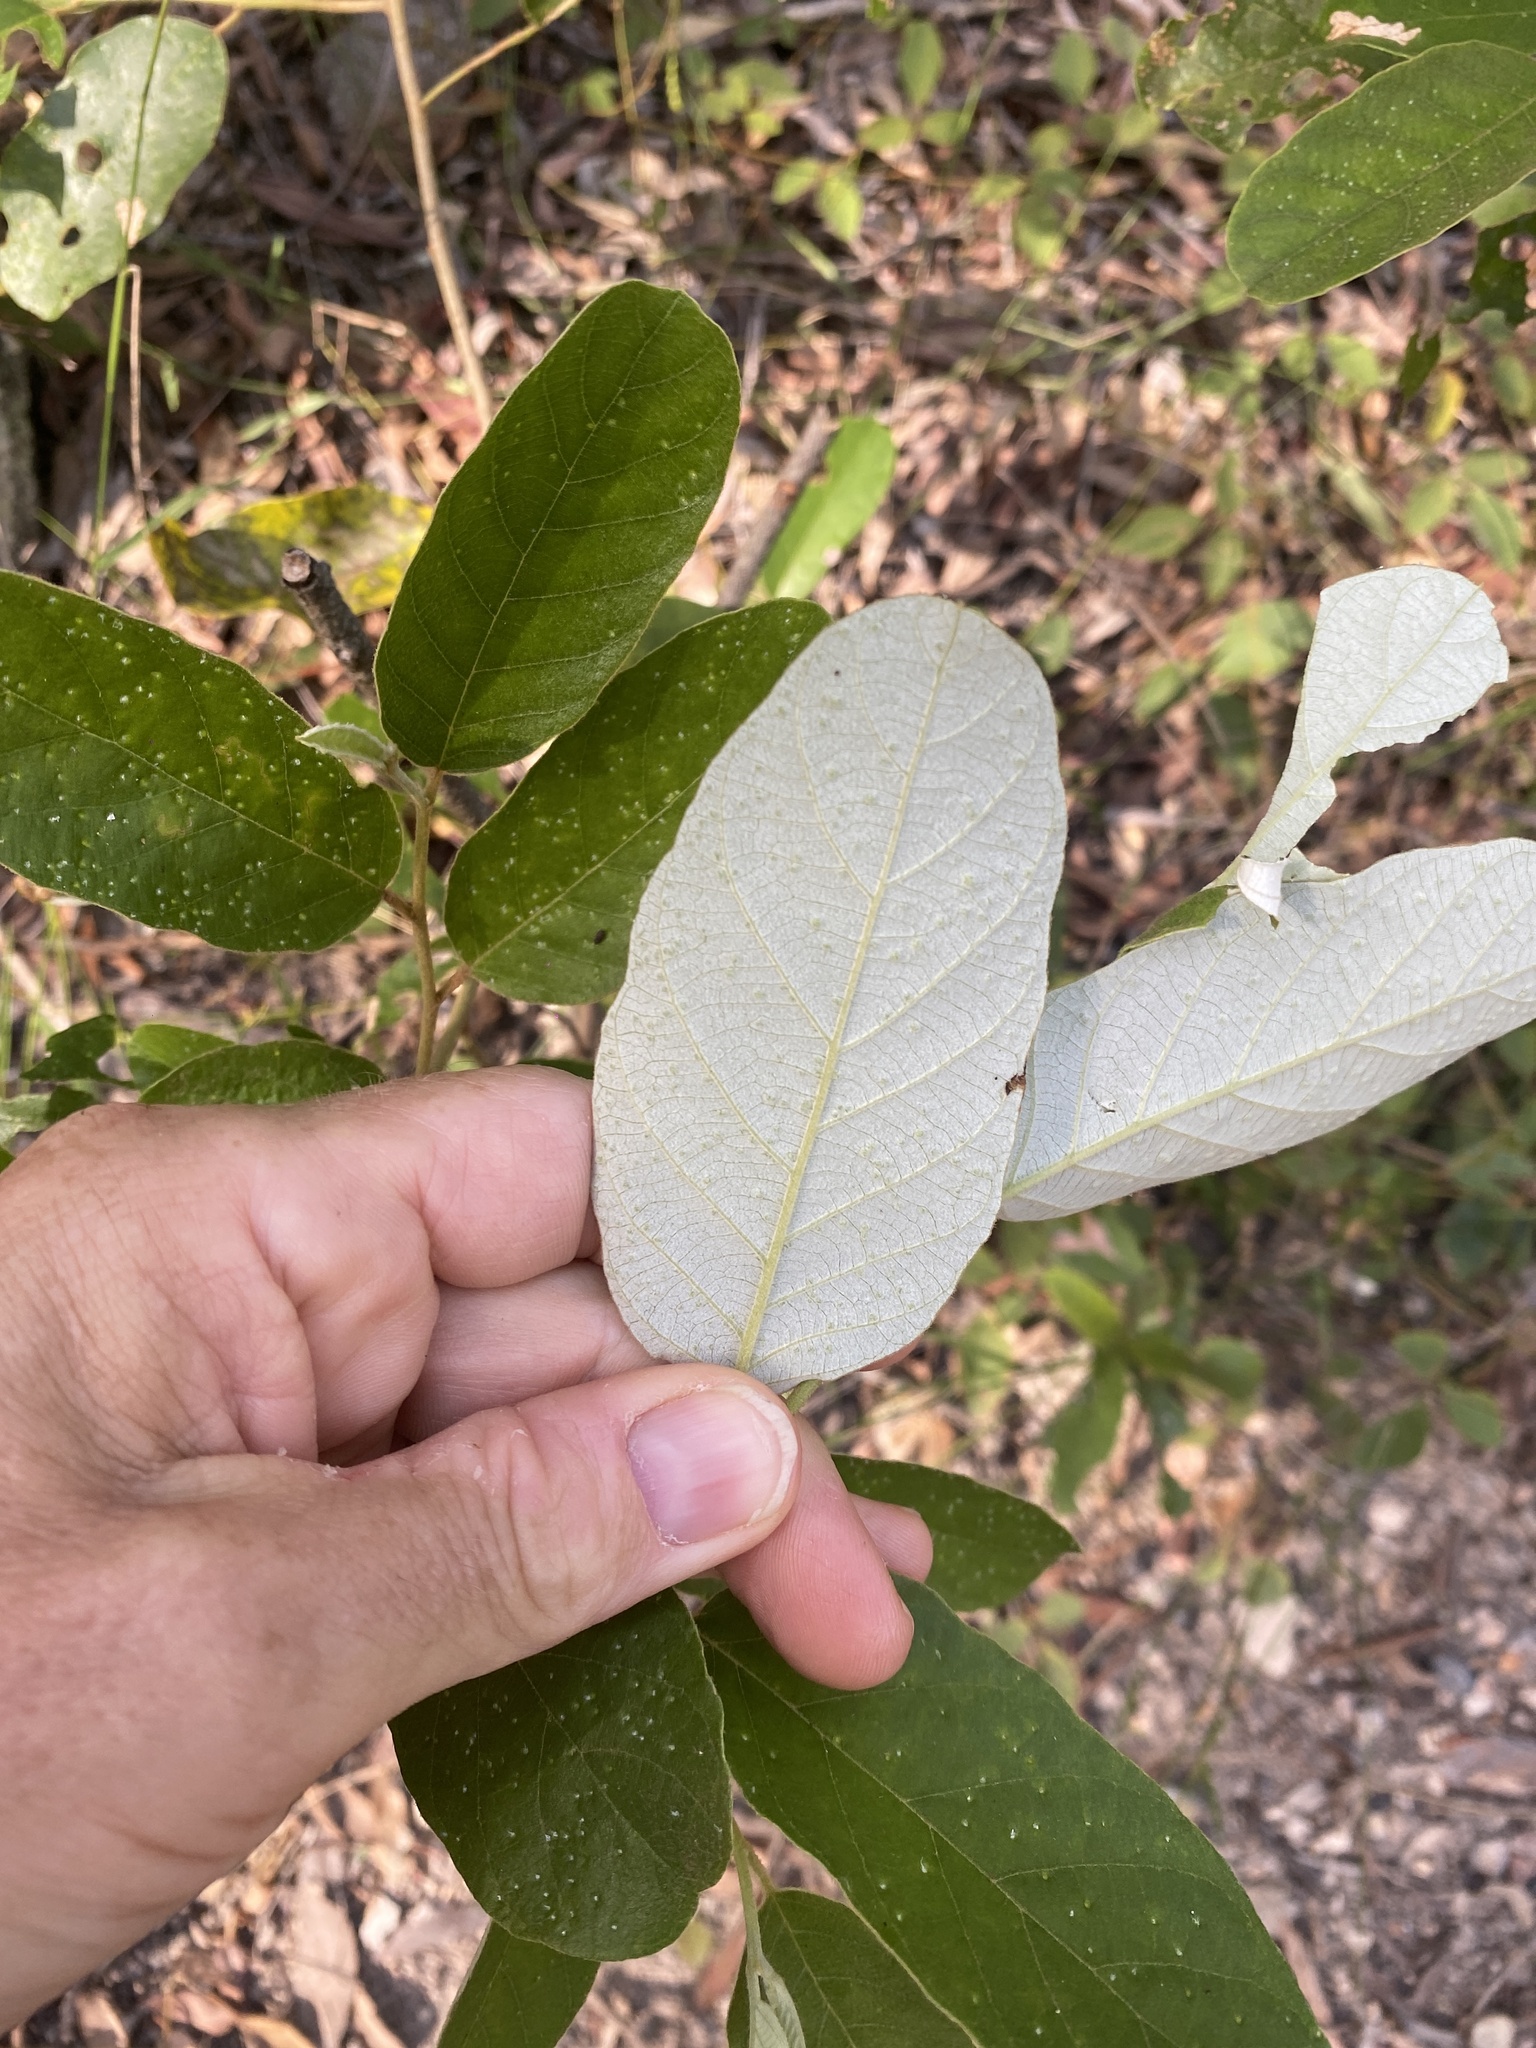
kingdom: Plantae
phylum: Tracheophyta
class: Magnoliopsida
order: Rosales
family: Rhamnaceae
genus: Alphitonia
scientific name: Alphitonia excelsa
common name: Red ash
